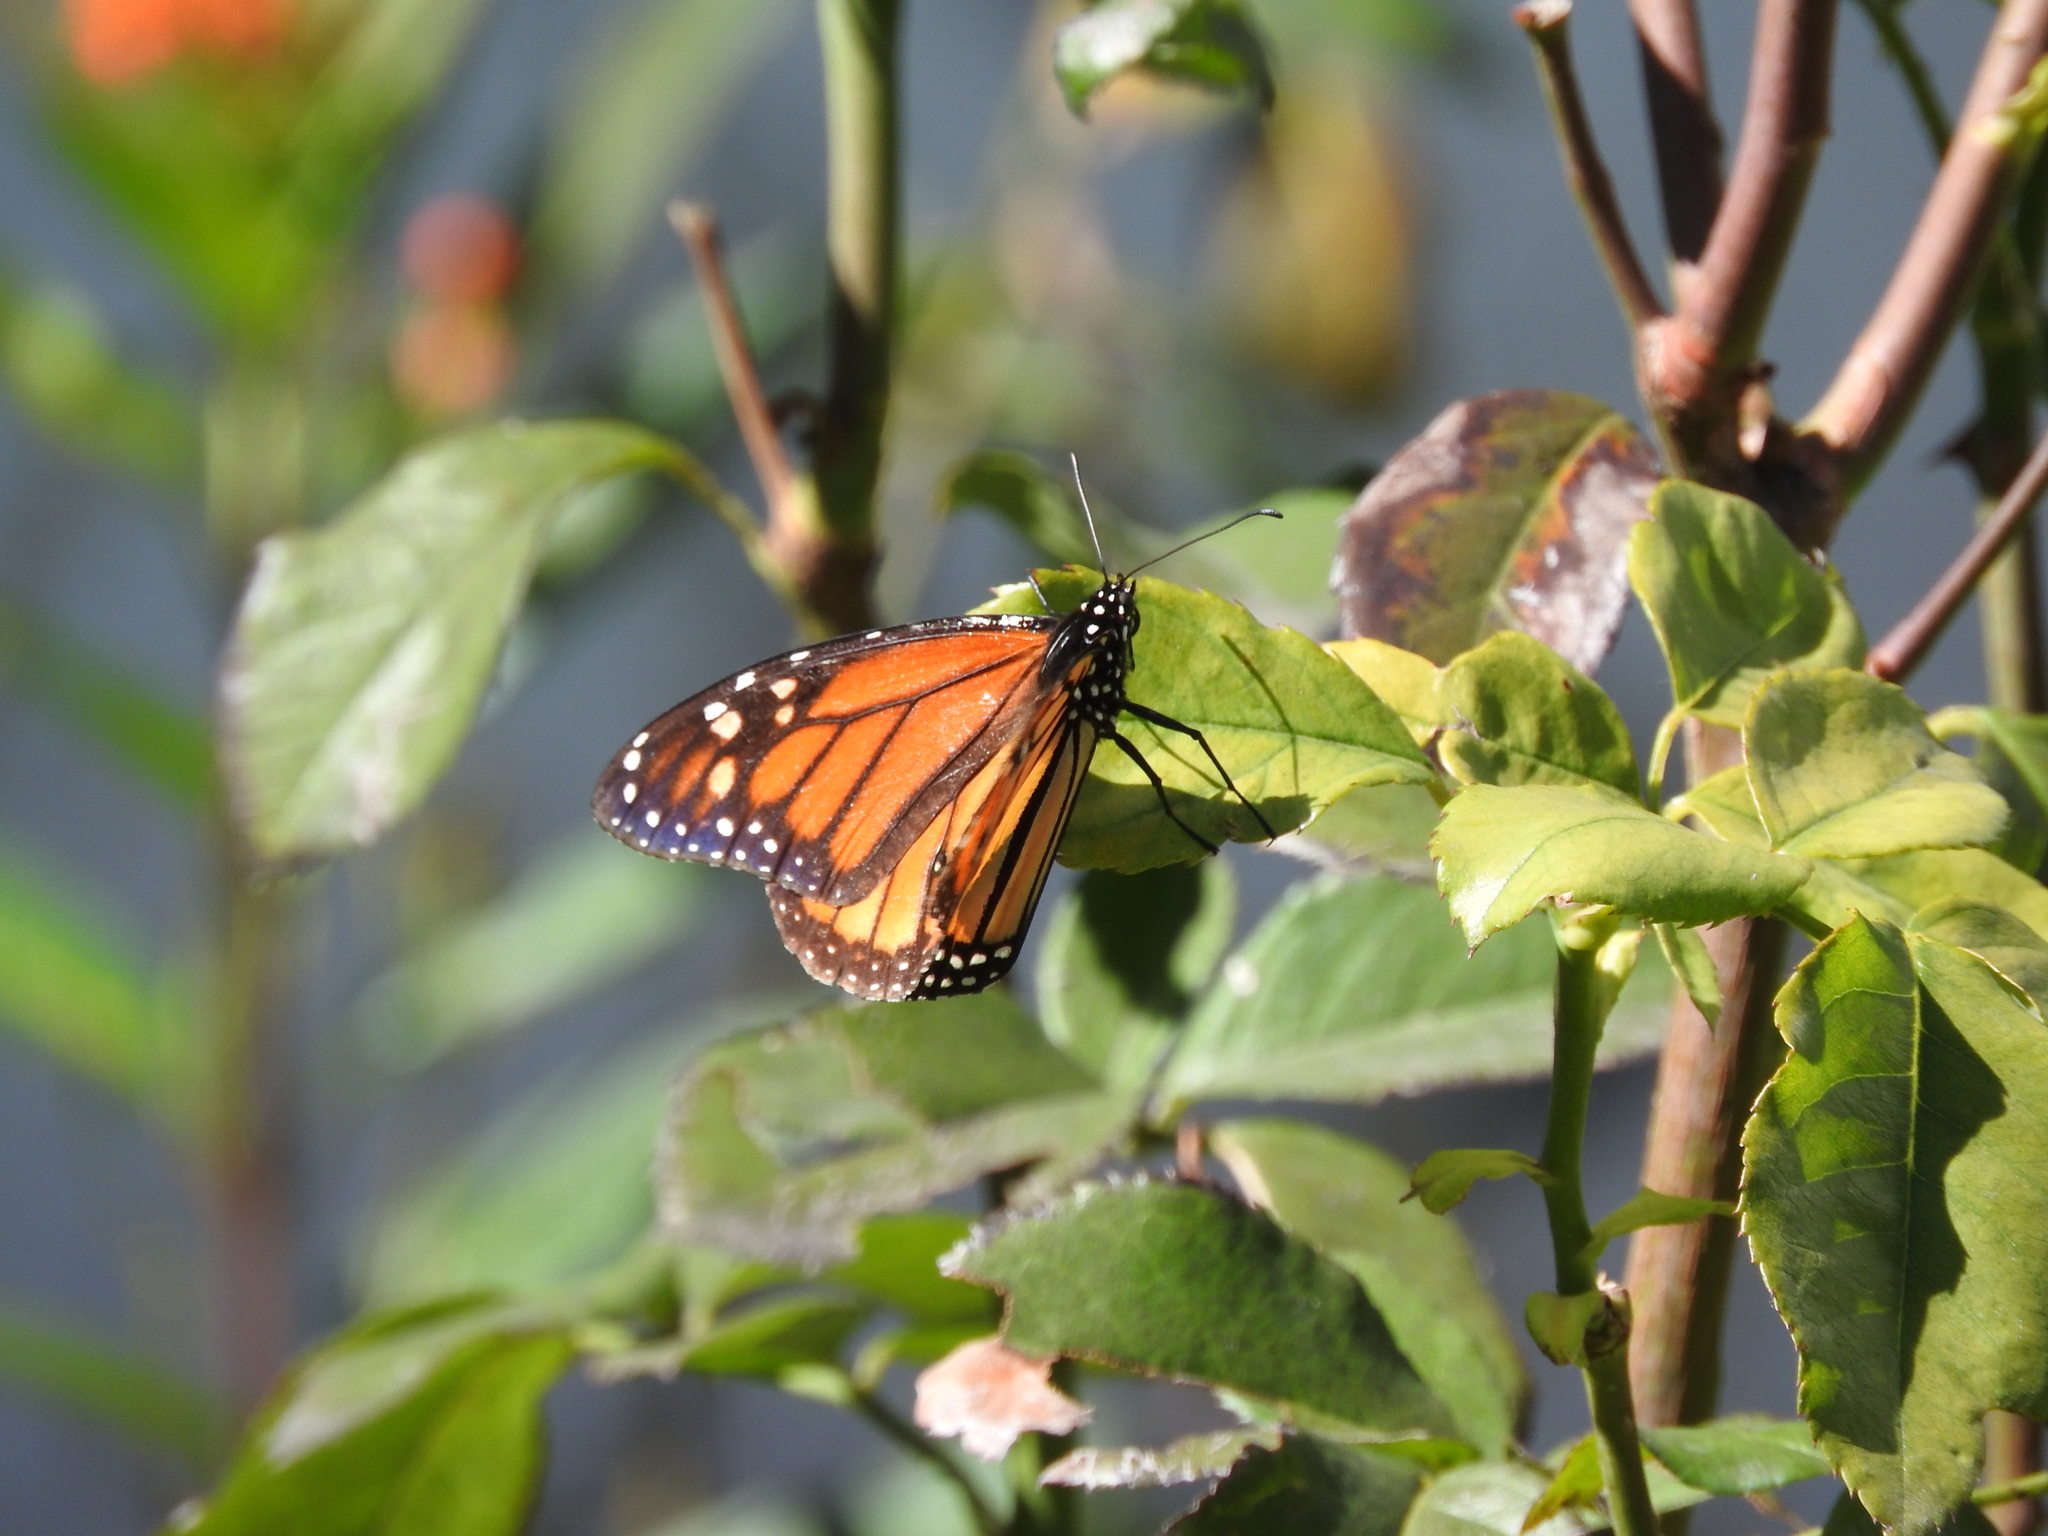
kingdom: Animalia
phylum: Arthropoda
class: Insecta
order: Lepidoptera
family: Nymphalidae
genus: Danaus
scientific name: Danaus plexippus
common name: Monarch
